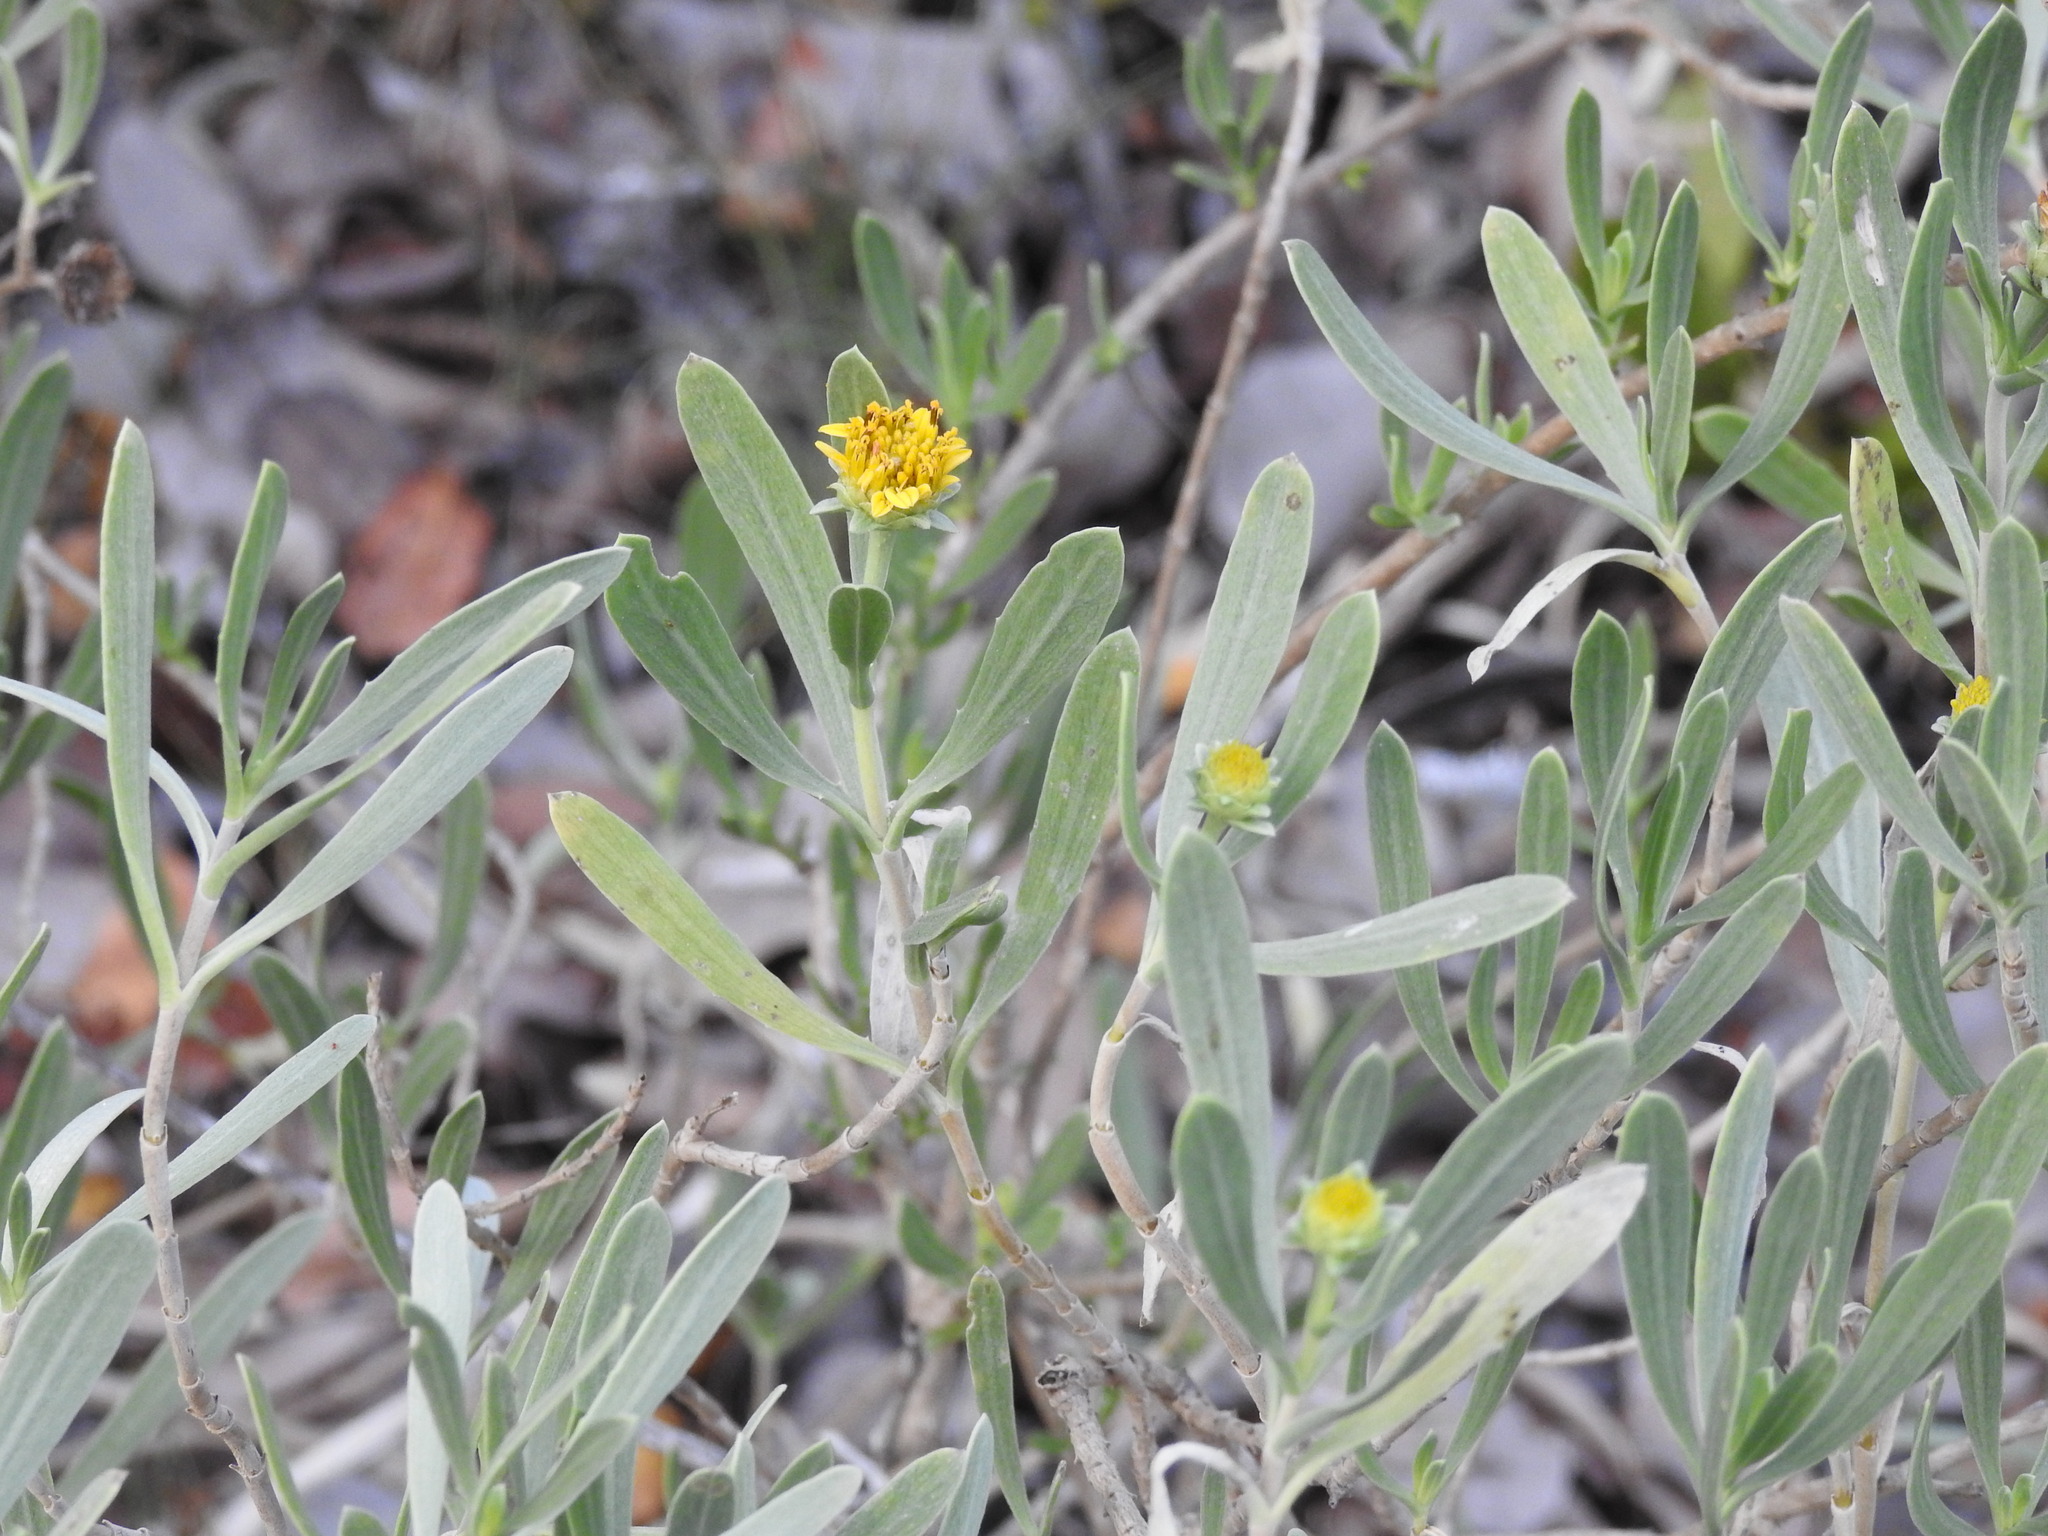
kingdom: Plantae
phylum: Tracheophyta
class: Magnoliopsida
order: Asterales
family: Asteraceae
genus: Borrichia
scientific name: Borrichia frutescens
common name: Sea oxeye
